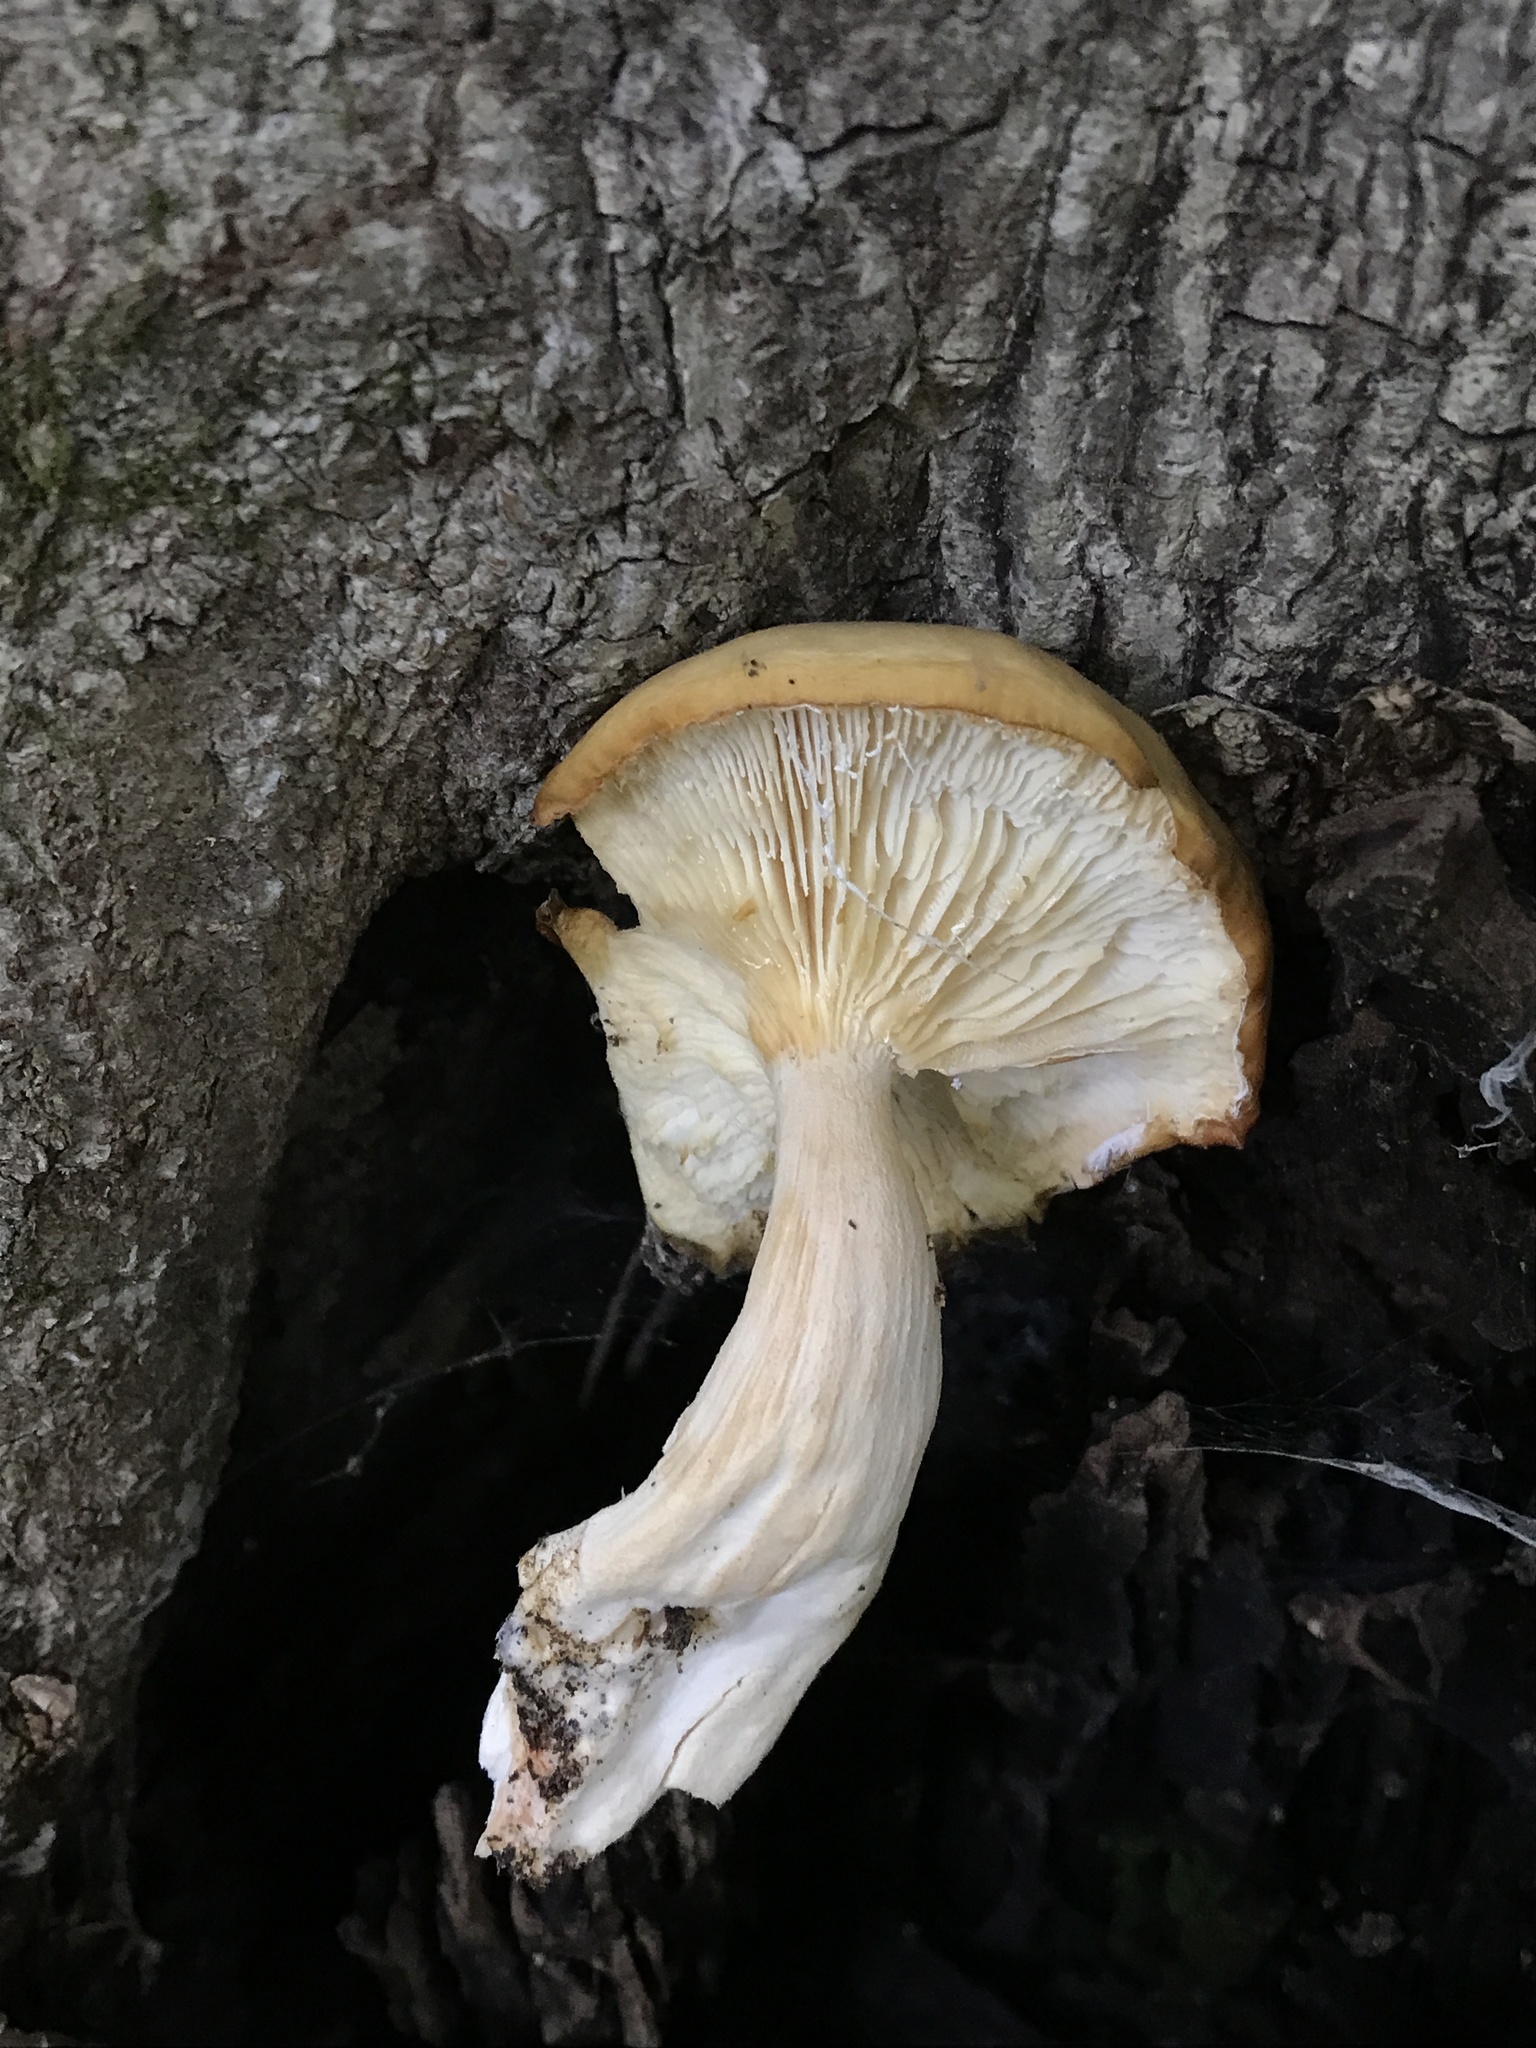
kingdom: Fungi
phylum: Basidiomycota
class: Agaricomycetes
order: Agaricales
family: Lyophyllaceae
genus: Hypsizygus
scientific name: Hypsizygus ulmarius
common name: Elm leech
